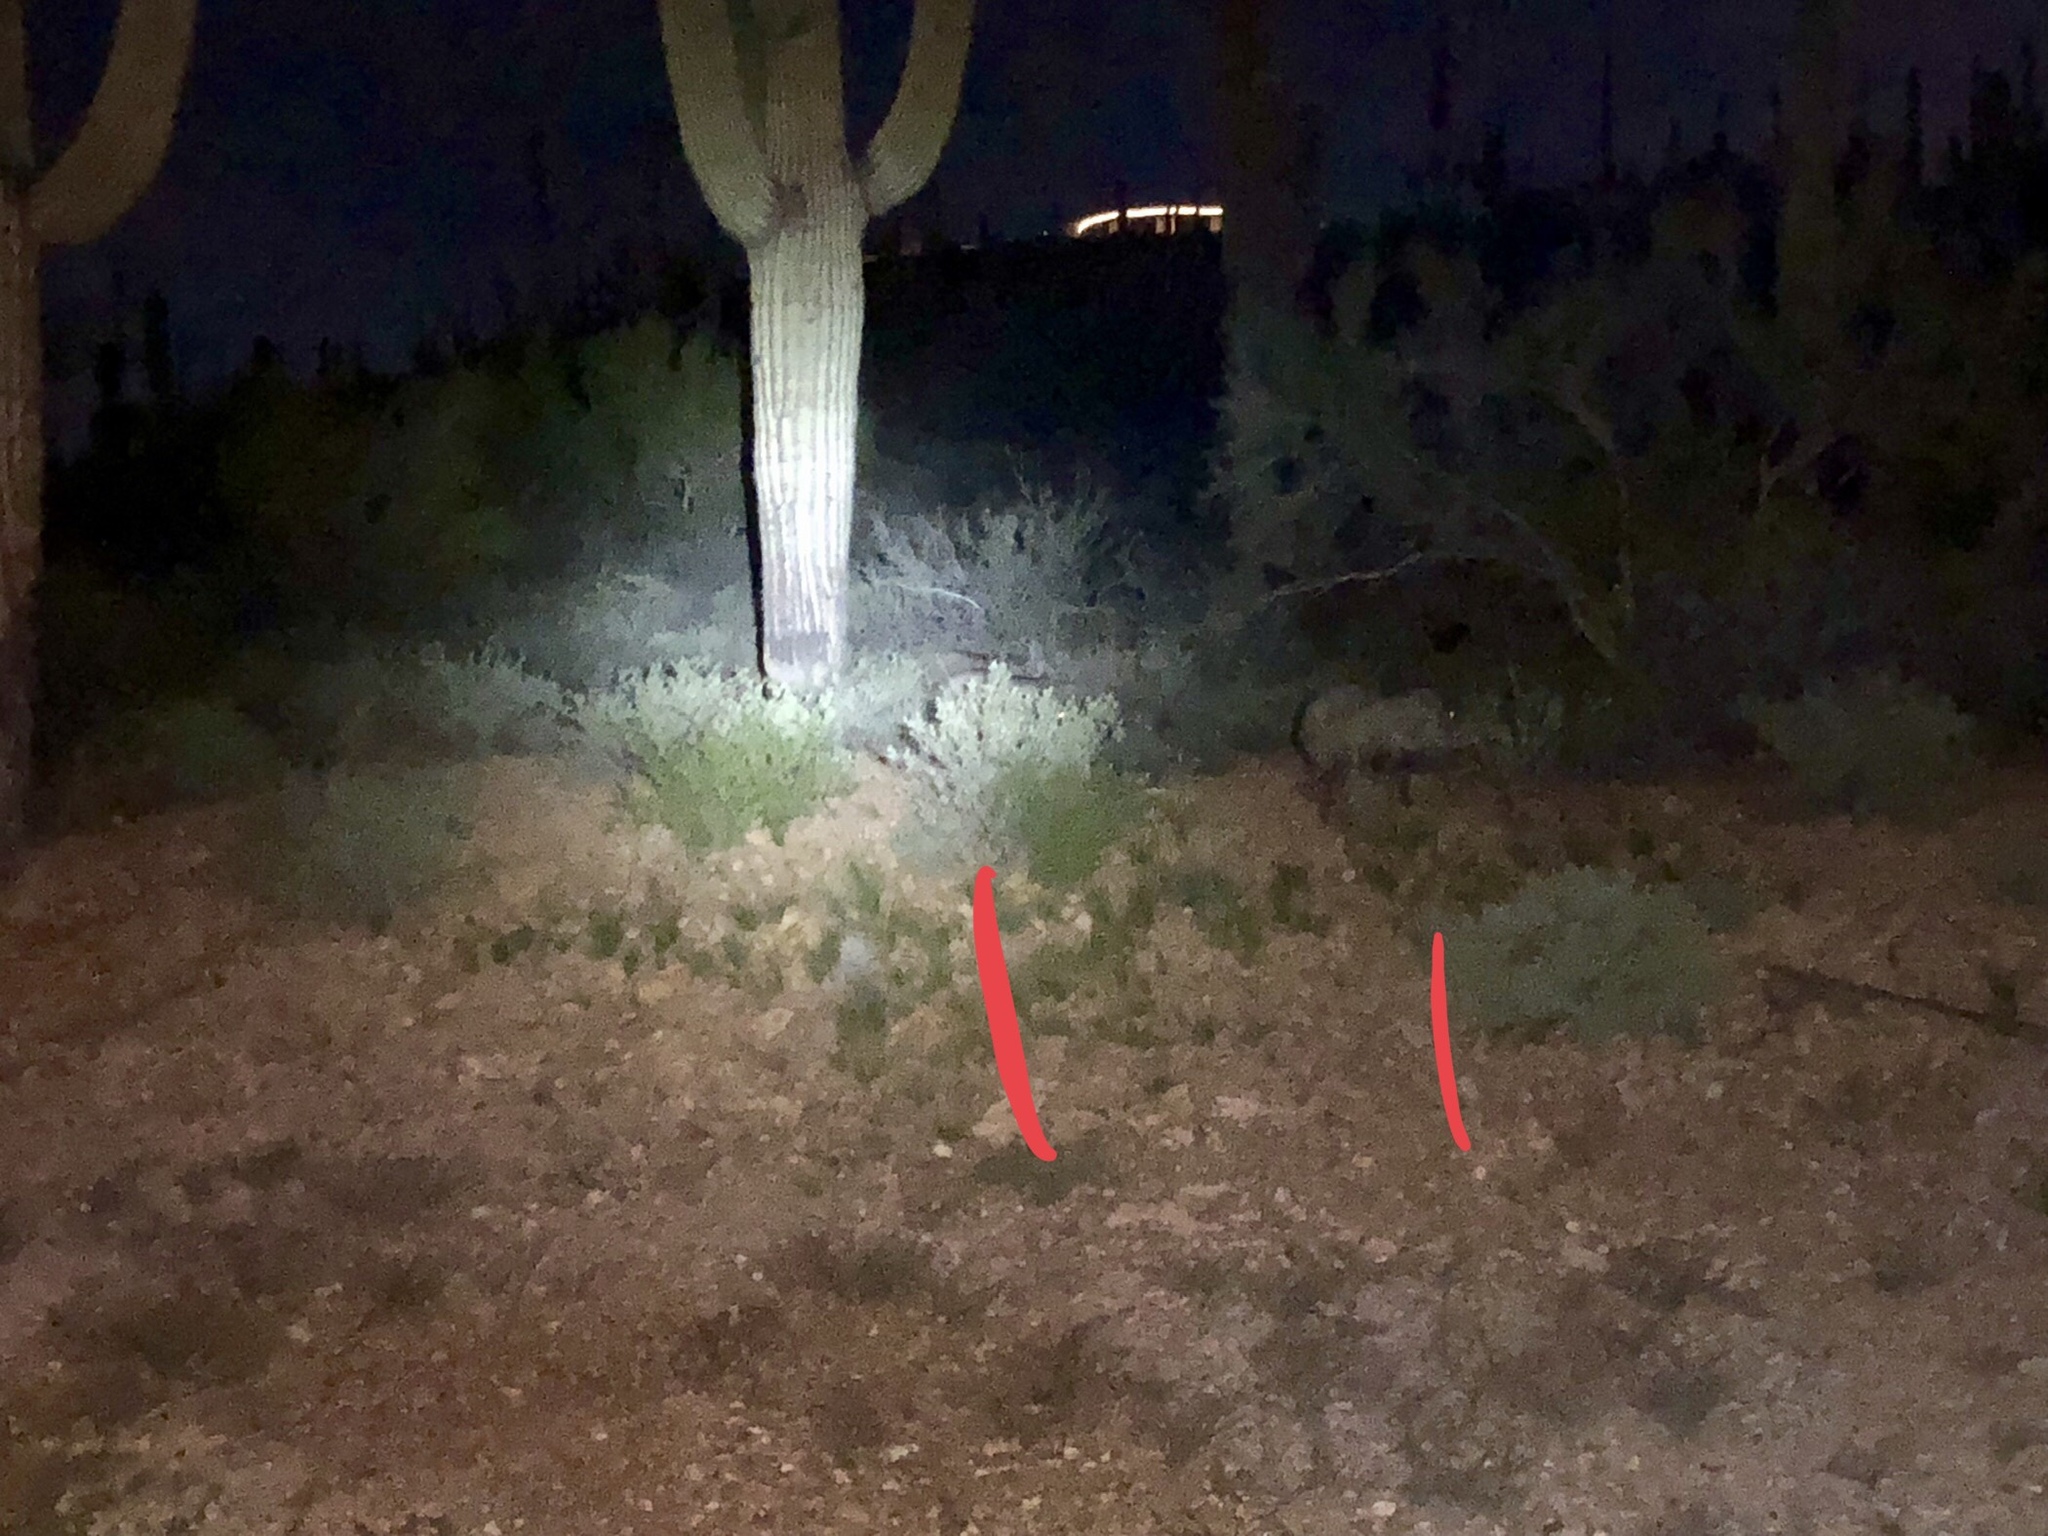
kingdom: Animalia
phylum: Chordata
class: Mammalia
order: Artiodactyla
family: Tayassuidae
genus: Pecari
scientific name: Pecari tajacu
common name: Collared peccary
